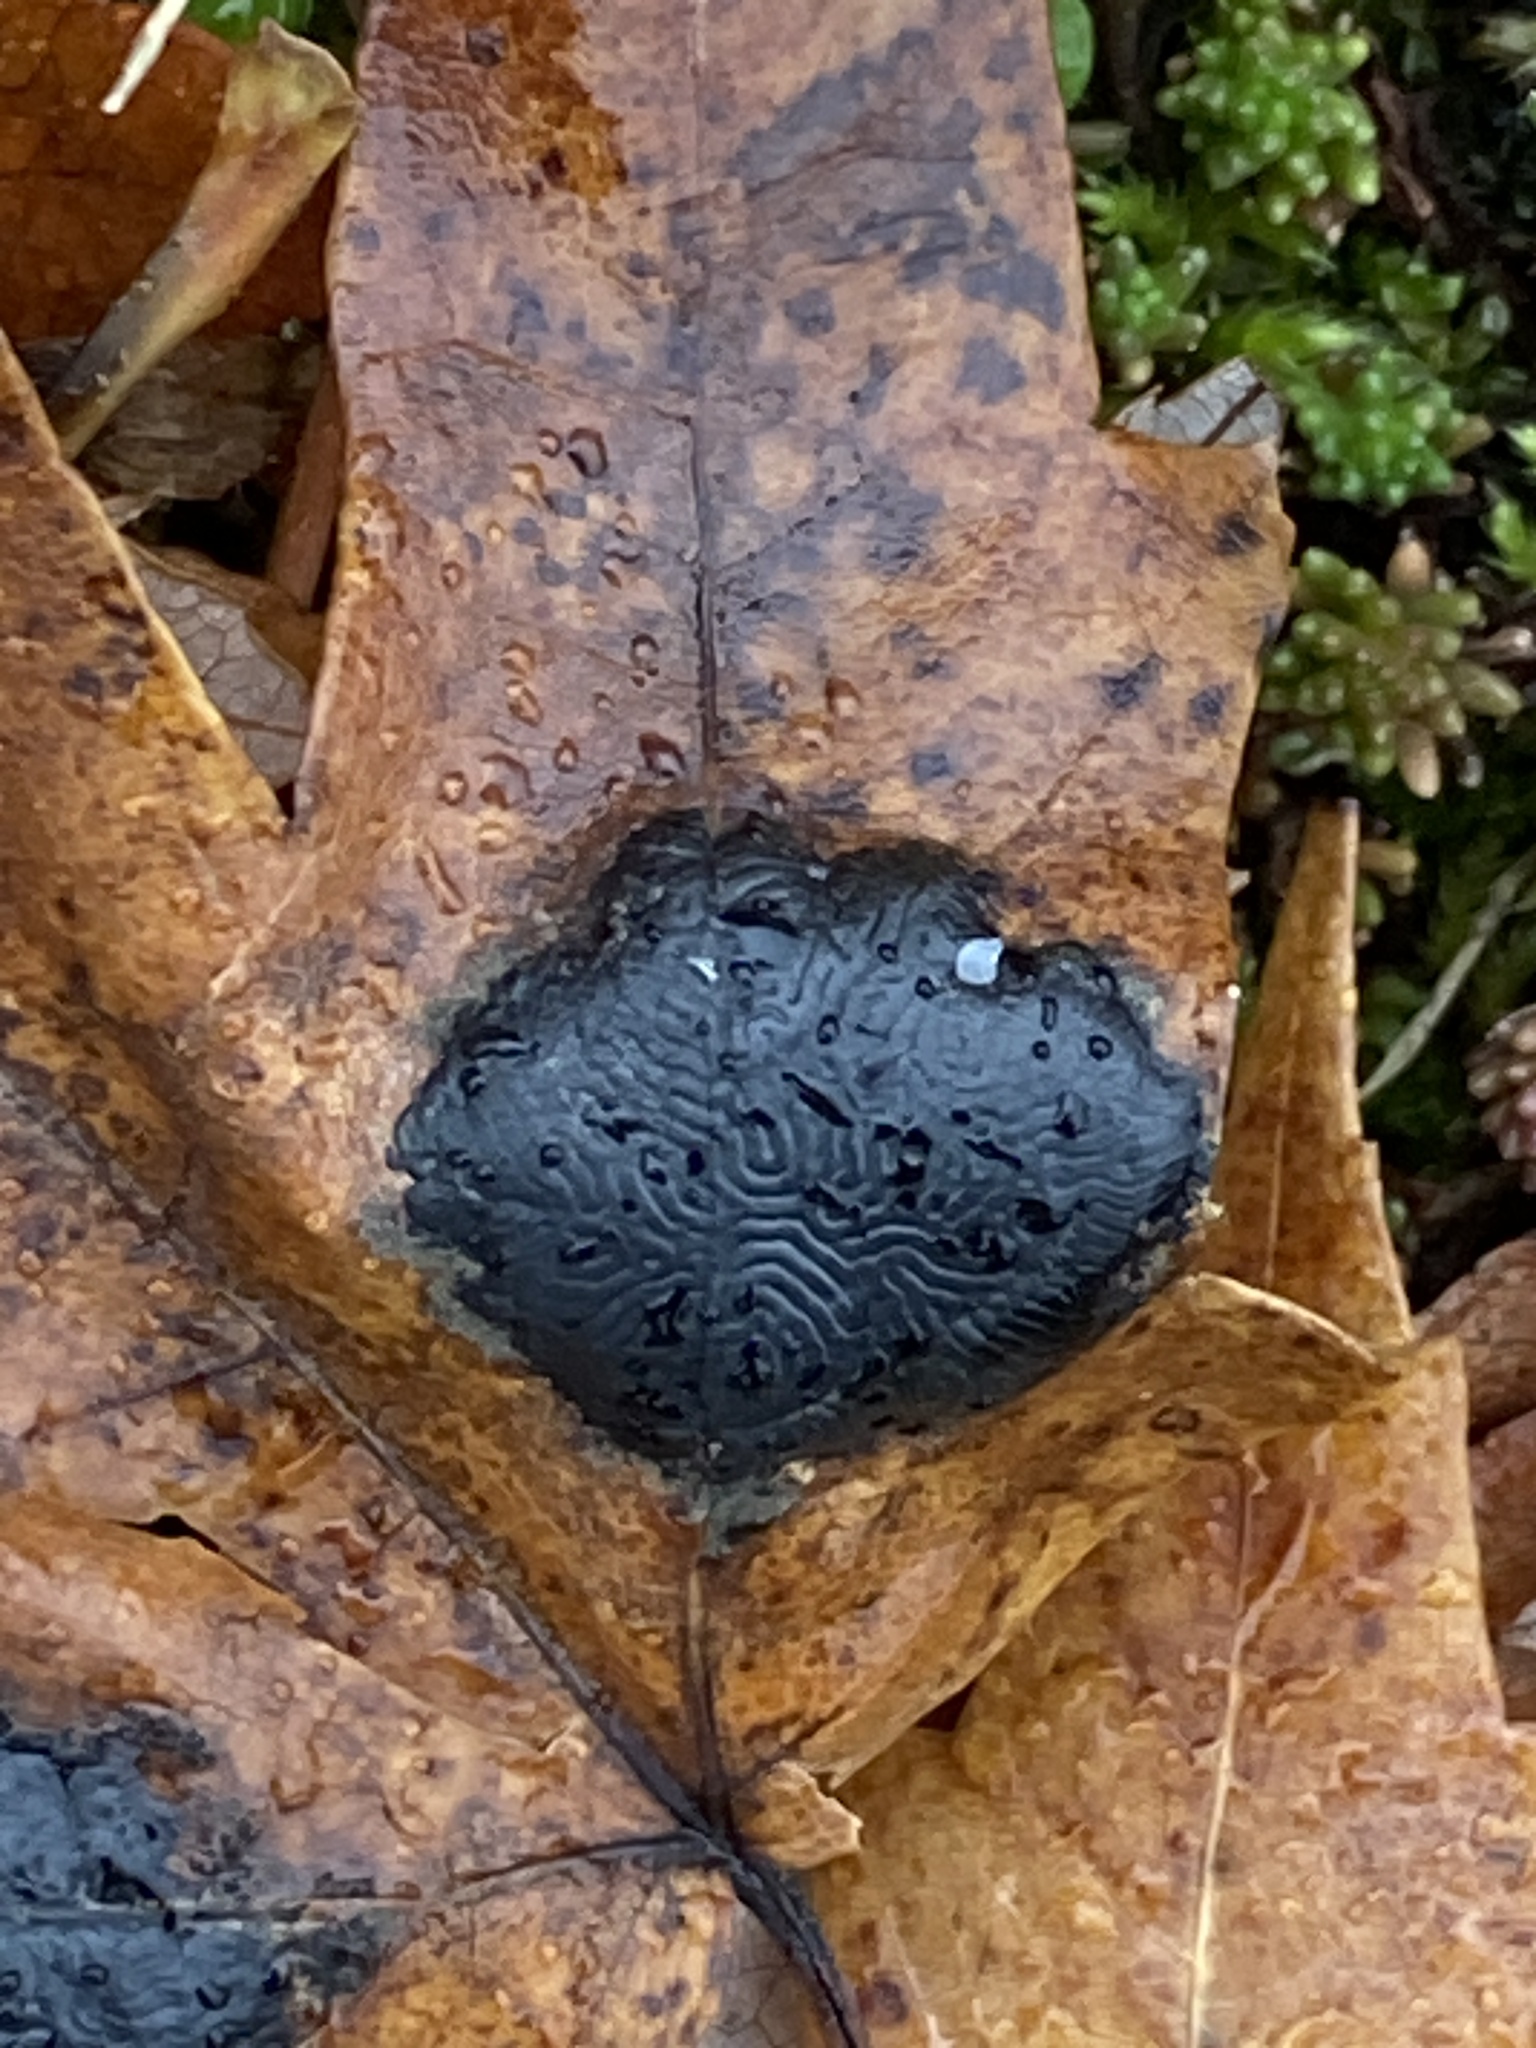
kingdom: Fungi
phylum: Ascomycota
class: Leotiomycetes
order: Rhytismatales
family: Rhytismataceae
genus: Rhytisma
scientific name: Rhytisma americanum
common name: American tar spot
